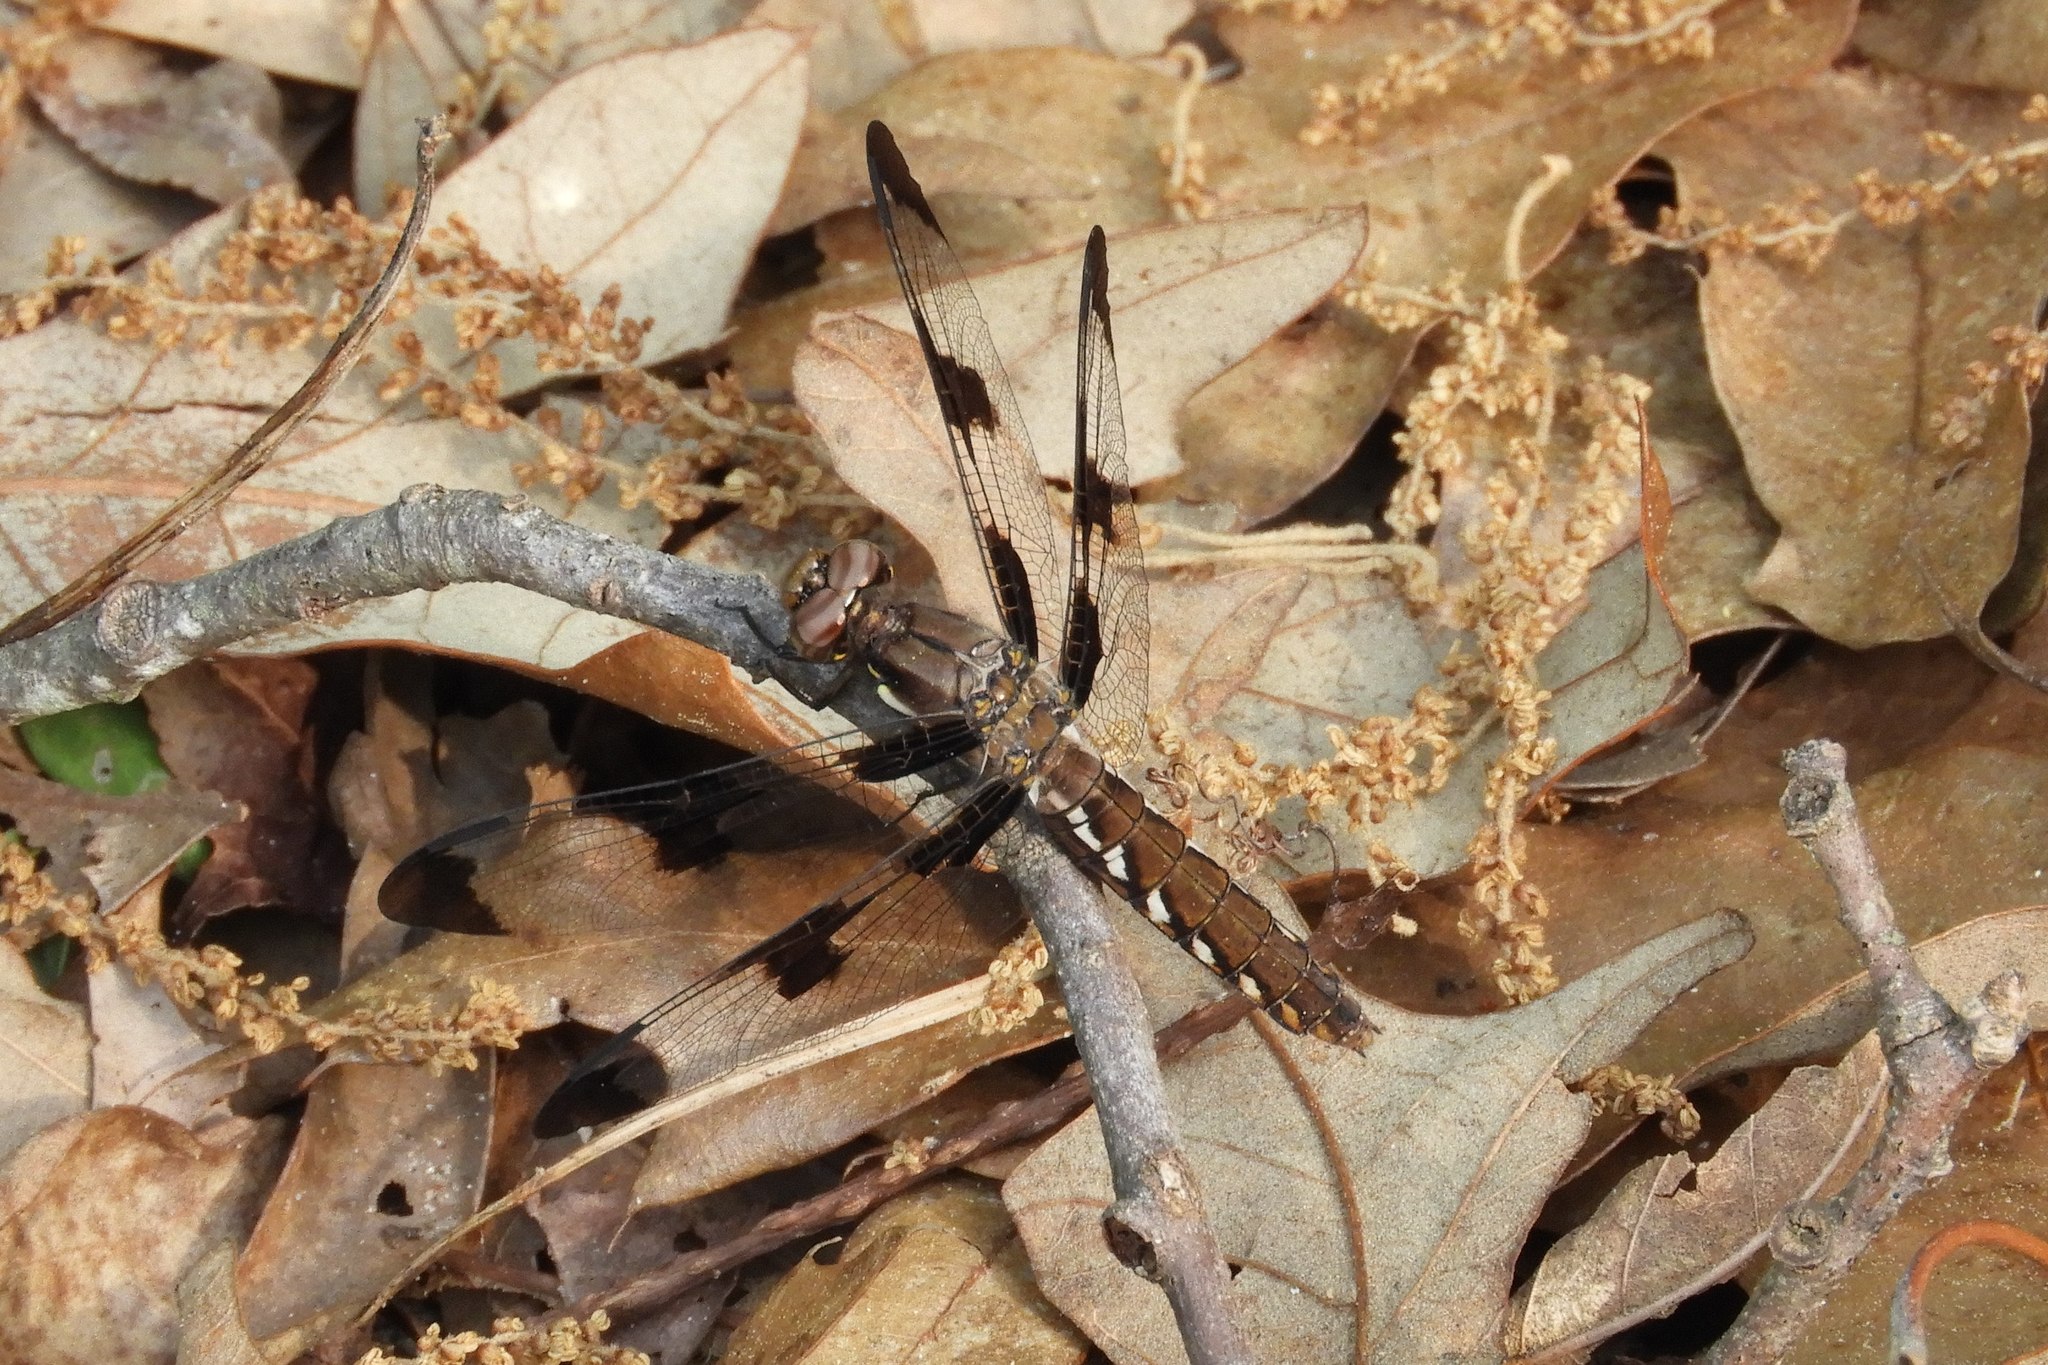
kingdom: Animalia
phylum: Arthropoda
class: Insecta
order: Odonata
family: Libellulidae
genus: Plathemis
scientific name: Plathemis lydia
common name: Common whitetail
